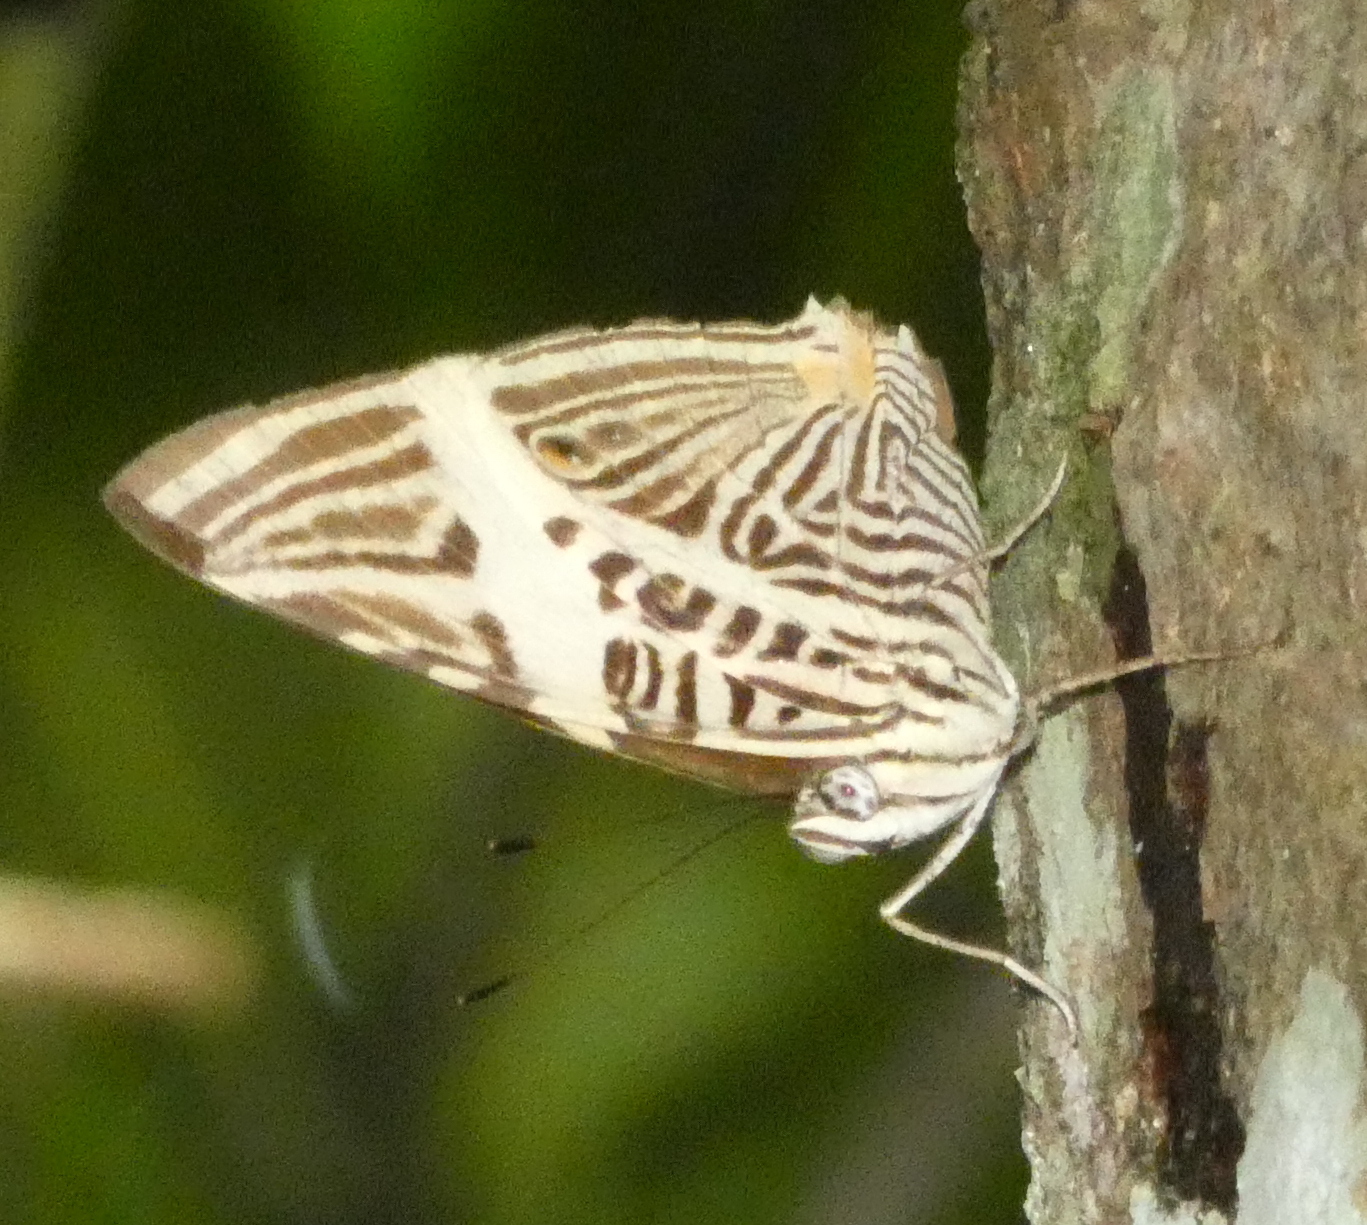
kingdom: Animalia
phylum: Arthropoda
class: Insecta
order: Lepidoptera
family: Nymphalidae
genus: Colobura
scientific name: Colobura dirce
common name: Dirce beauty
